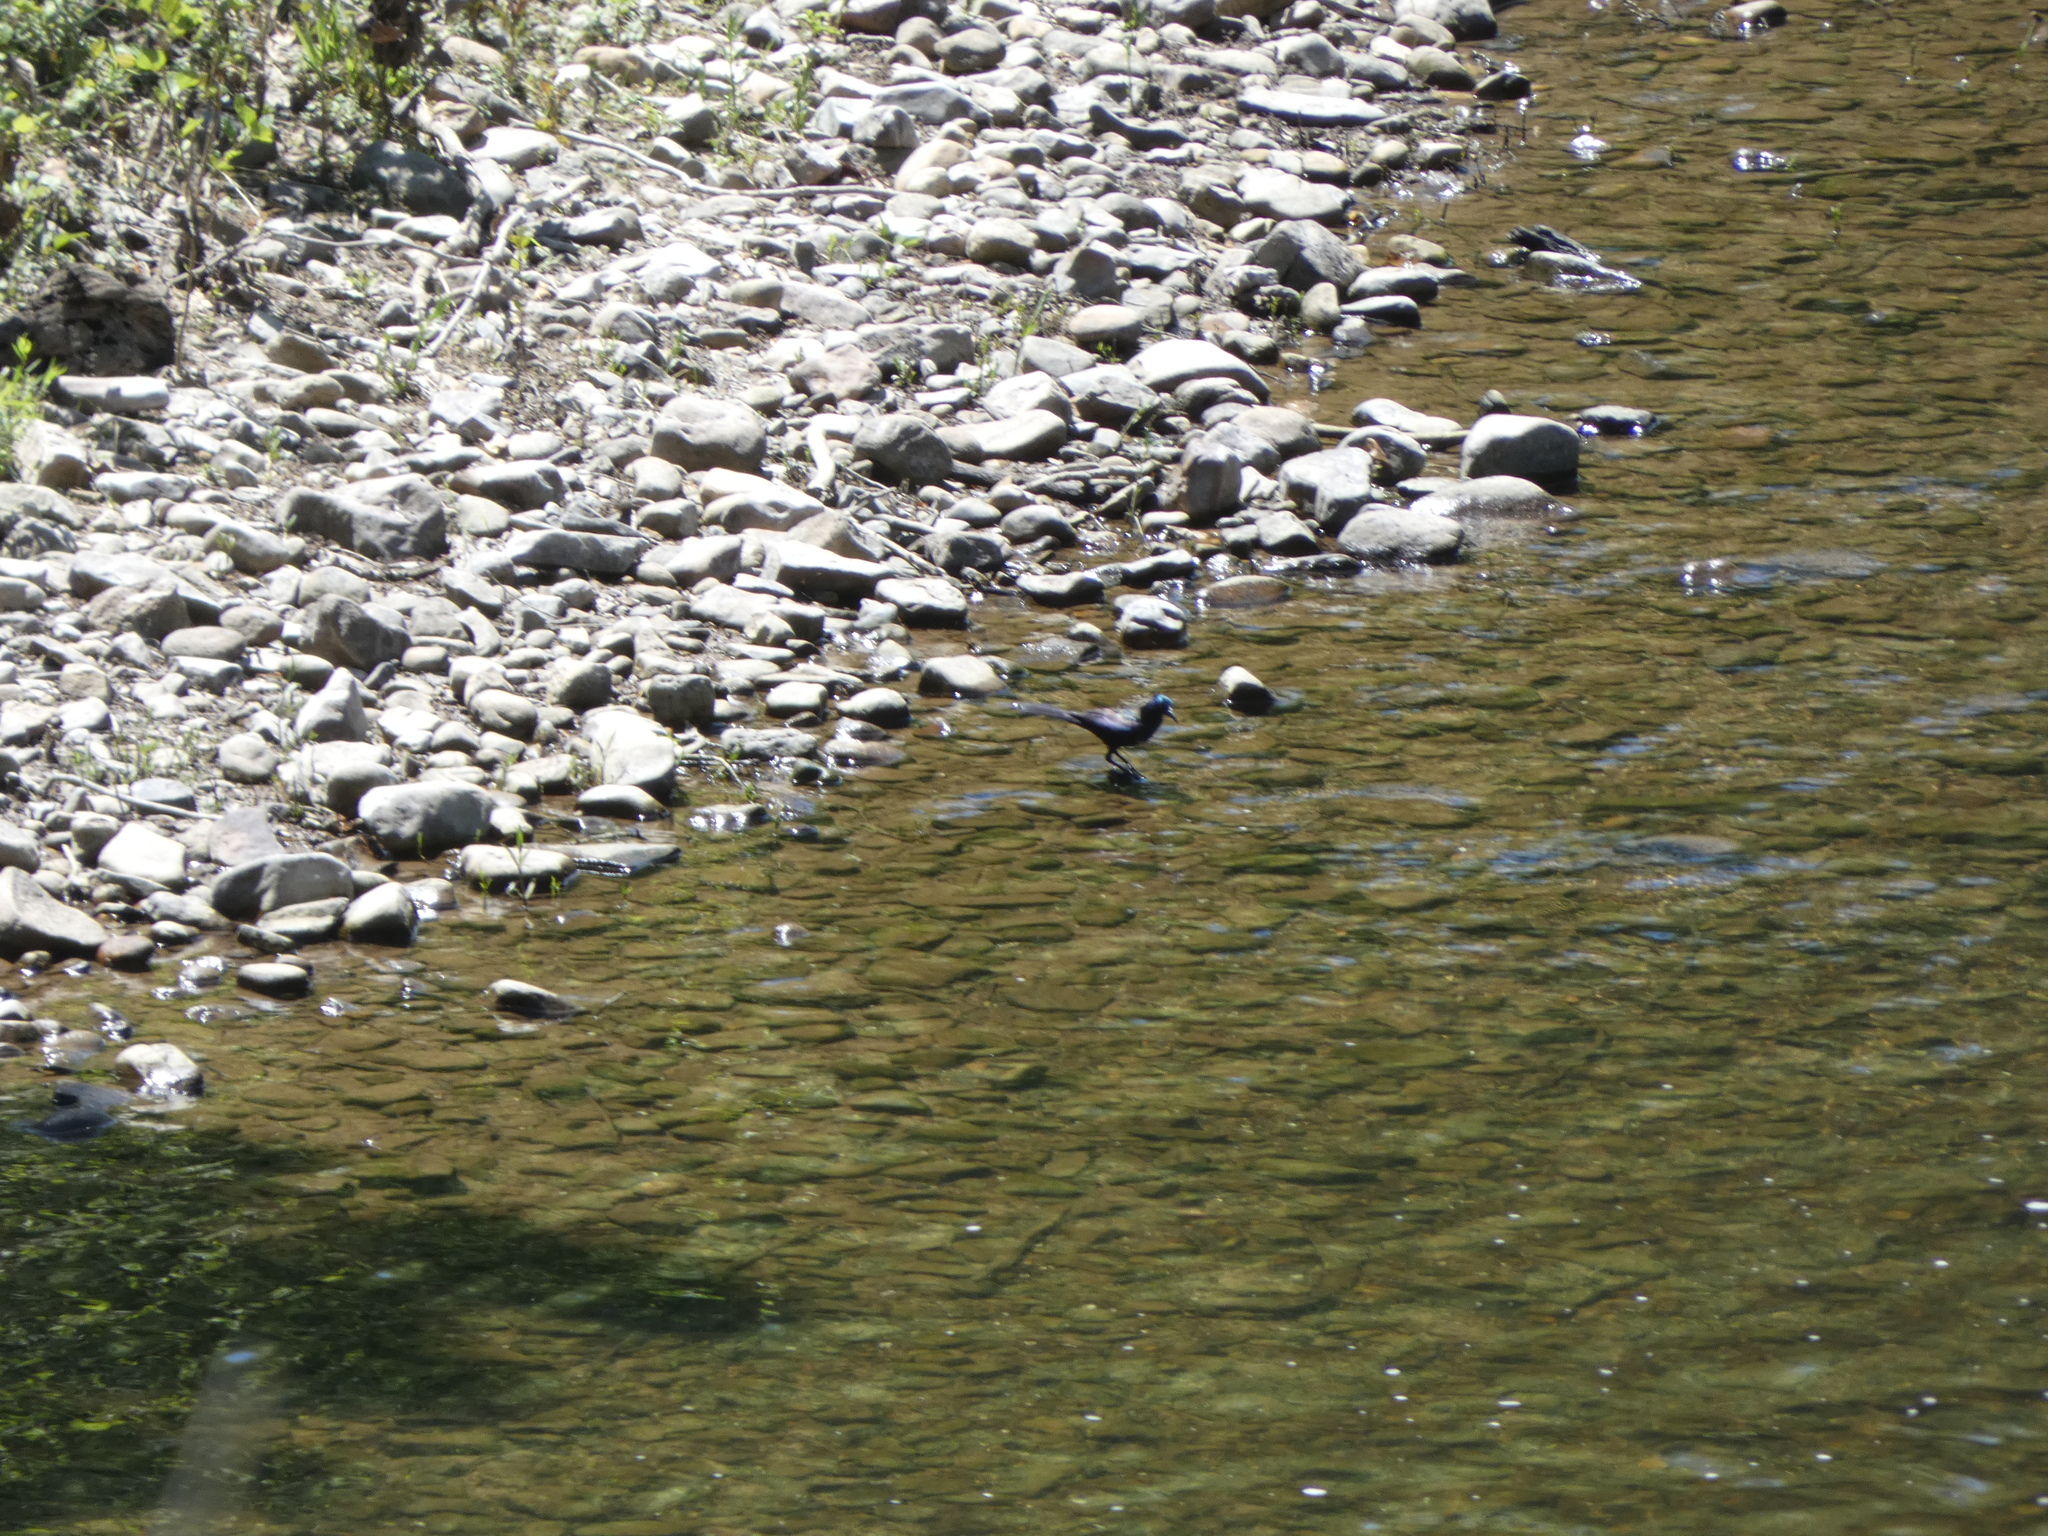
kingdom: Animalia
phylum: Chordata
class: Aves
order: Passeriformes
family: Icteridae
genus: Quiscalus
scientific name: Quiscalus quiscula
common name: Common grackle
